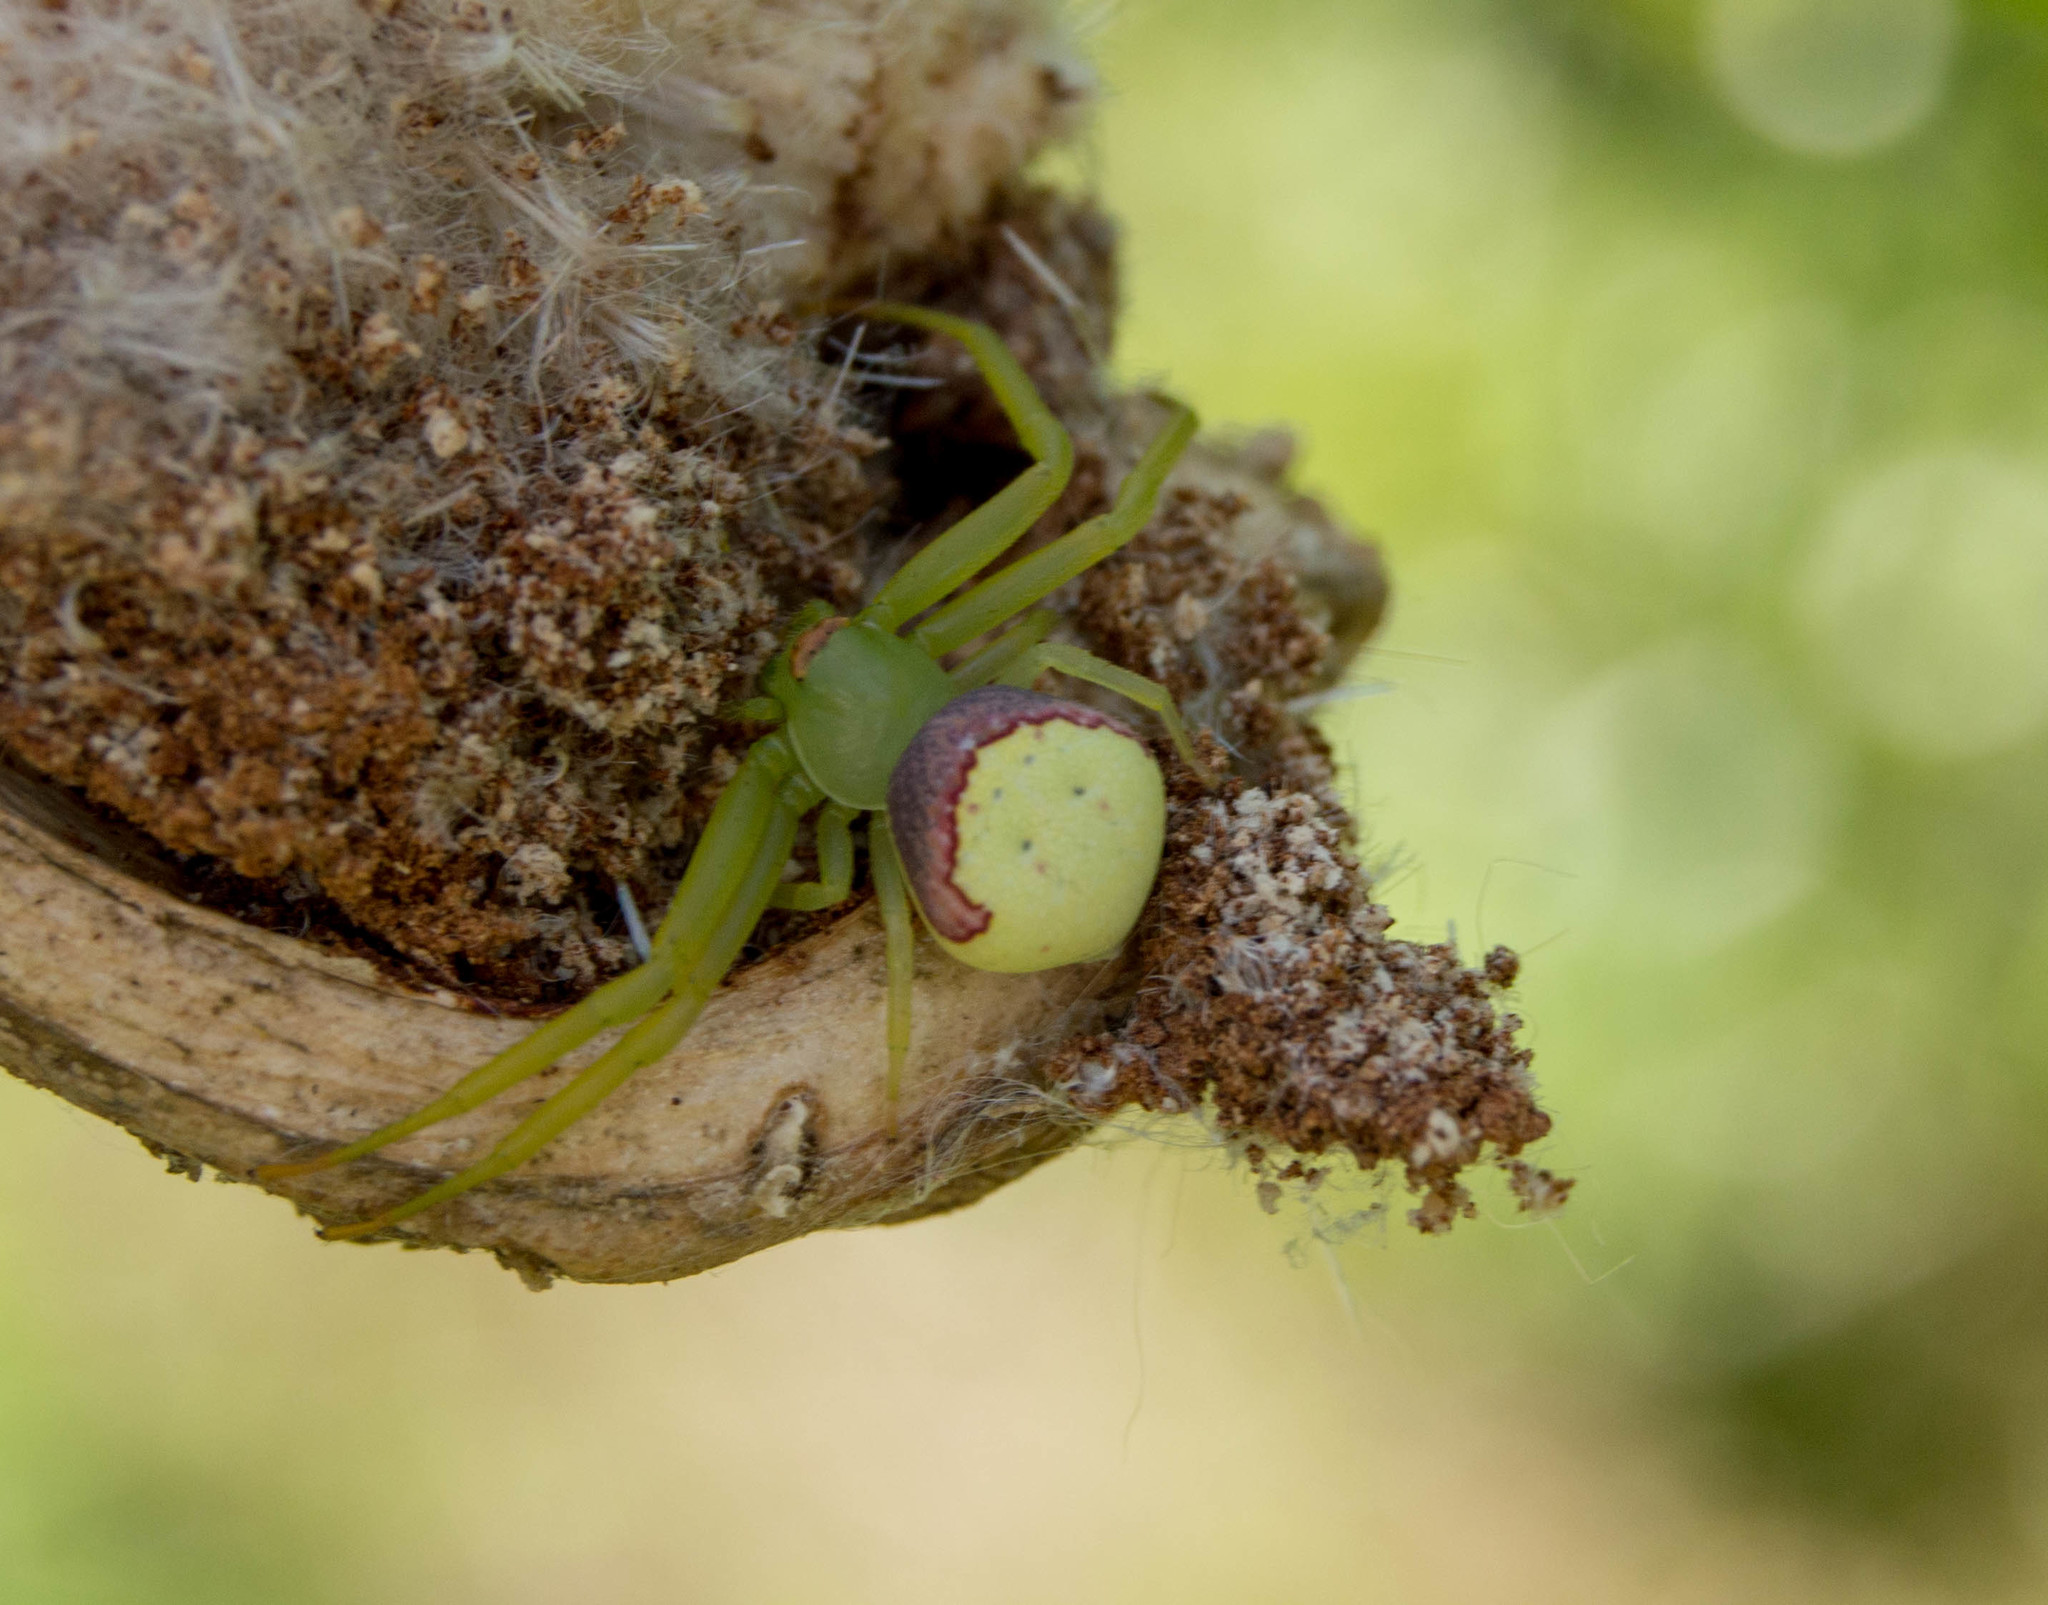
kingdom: Animalia
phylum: Arthropoda
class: Arachnida
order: Araneae
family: Thomisidae
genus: Misumenops
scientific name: Misumenops callinurus
